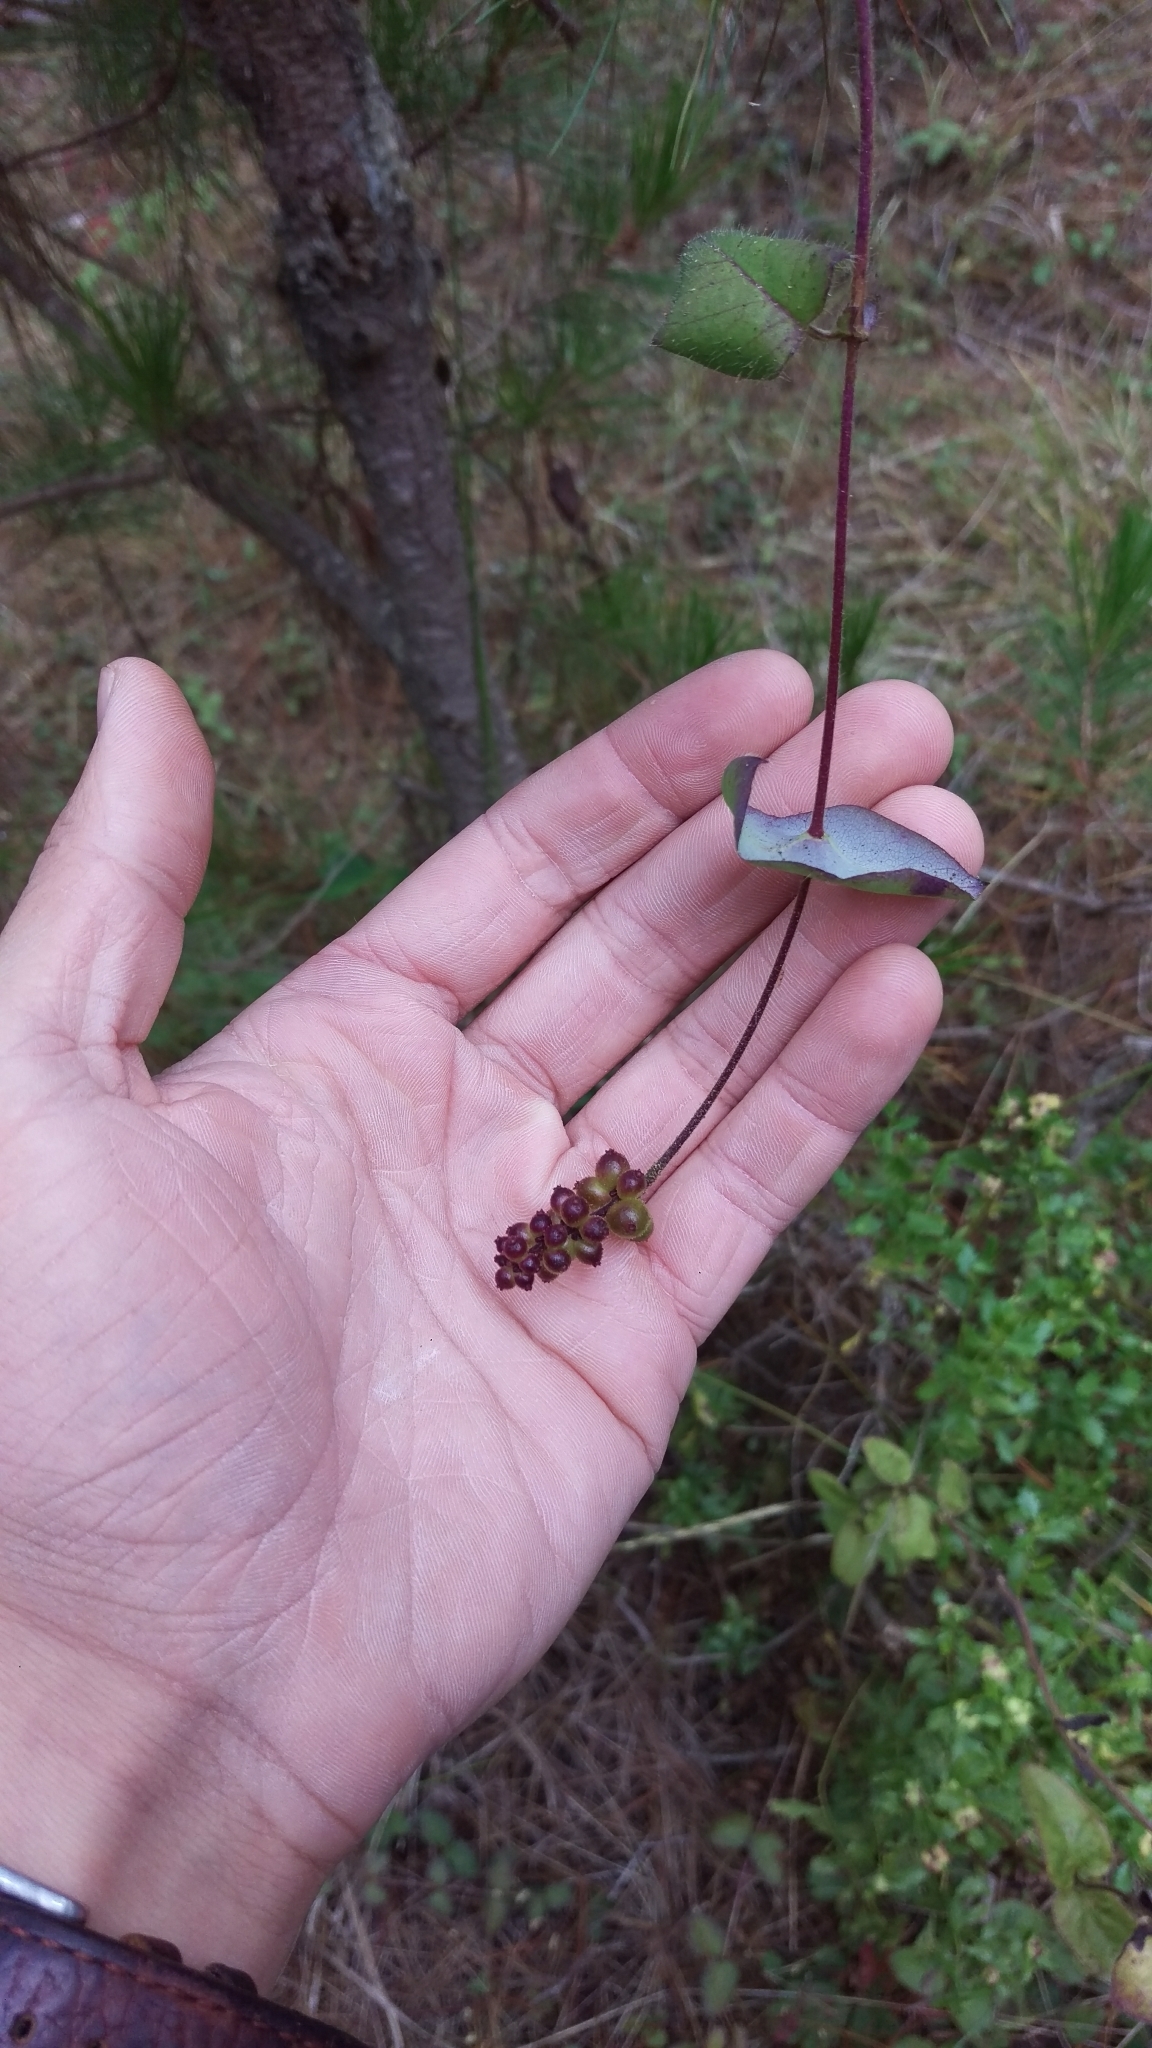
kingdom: Plantae
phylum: Tracheophyta
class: Magnoliopsida
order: Dipsacales
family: Caprifoliaceae
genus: Lonicera
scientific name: Lonicera hispidula
